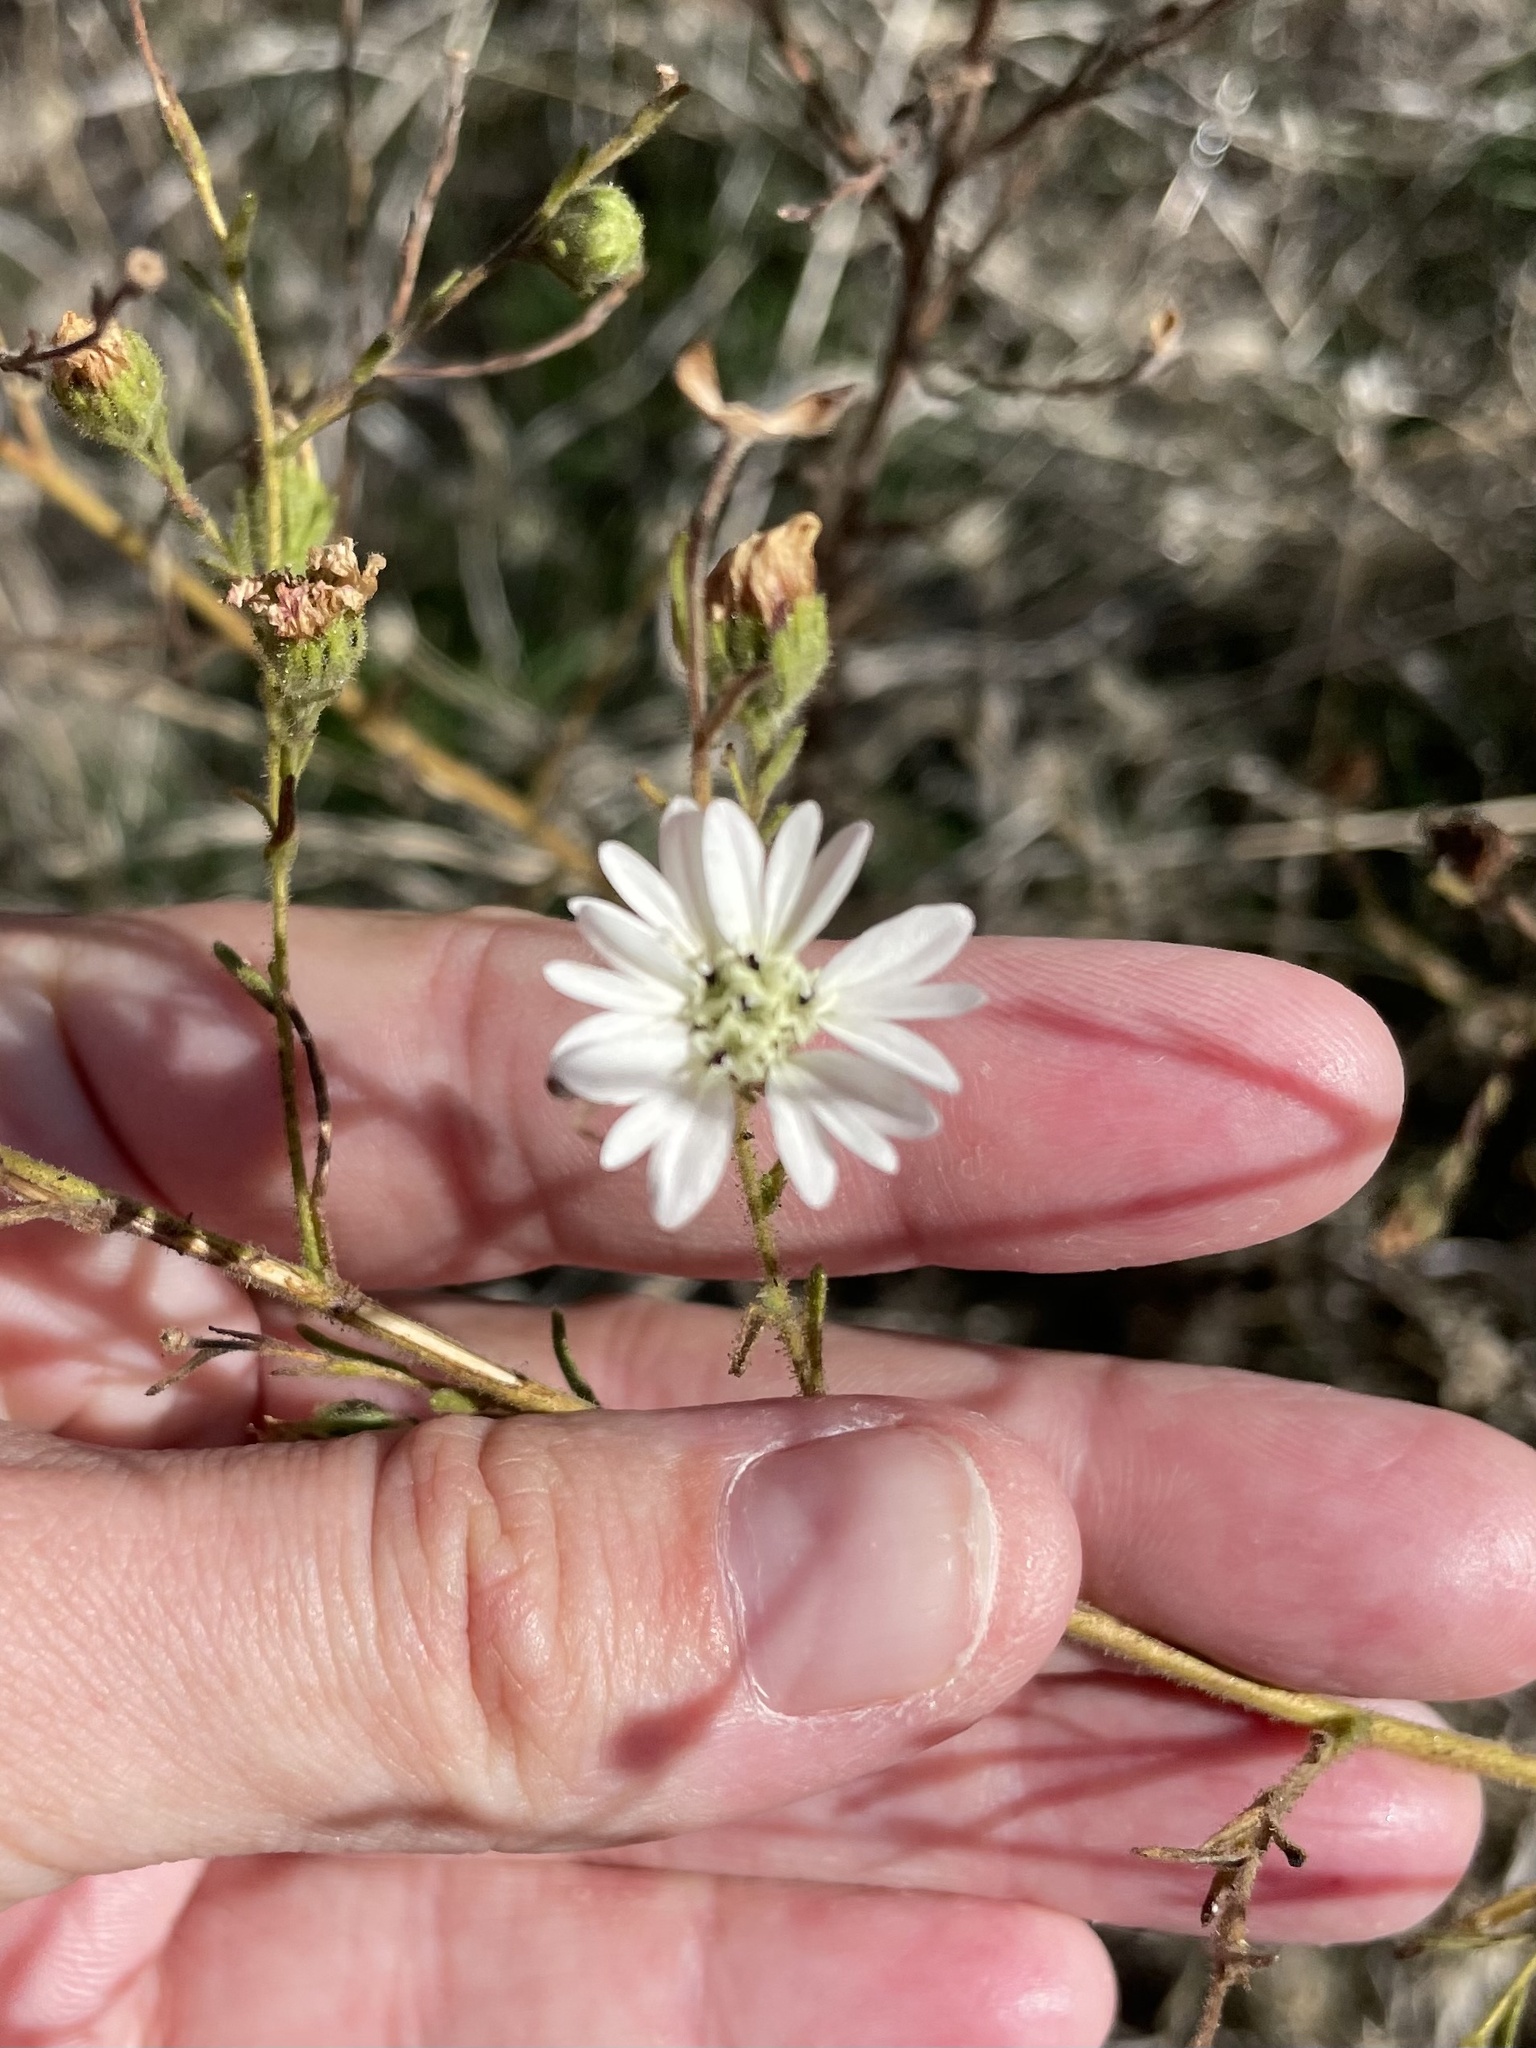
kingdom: Plantae
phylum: Tracheophyta
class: Magnoliopsida
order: Asterales
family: Asteraceae
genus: Hemizonia
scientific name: Hemizonia congesta
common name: Hayfield tarweed
